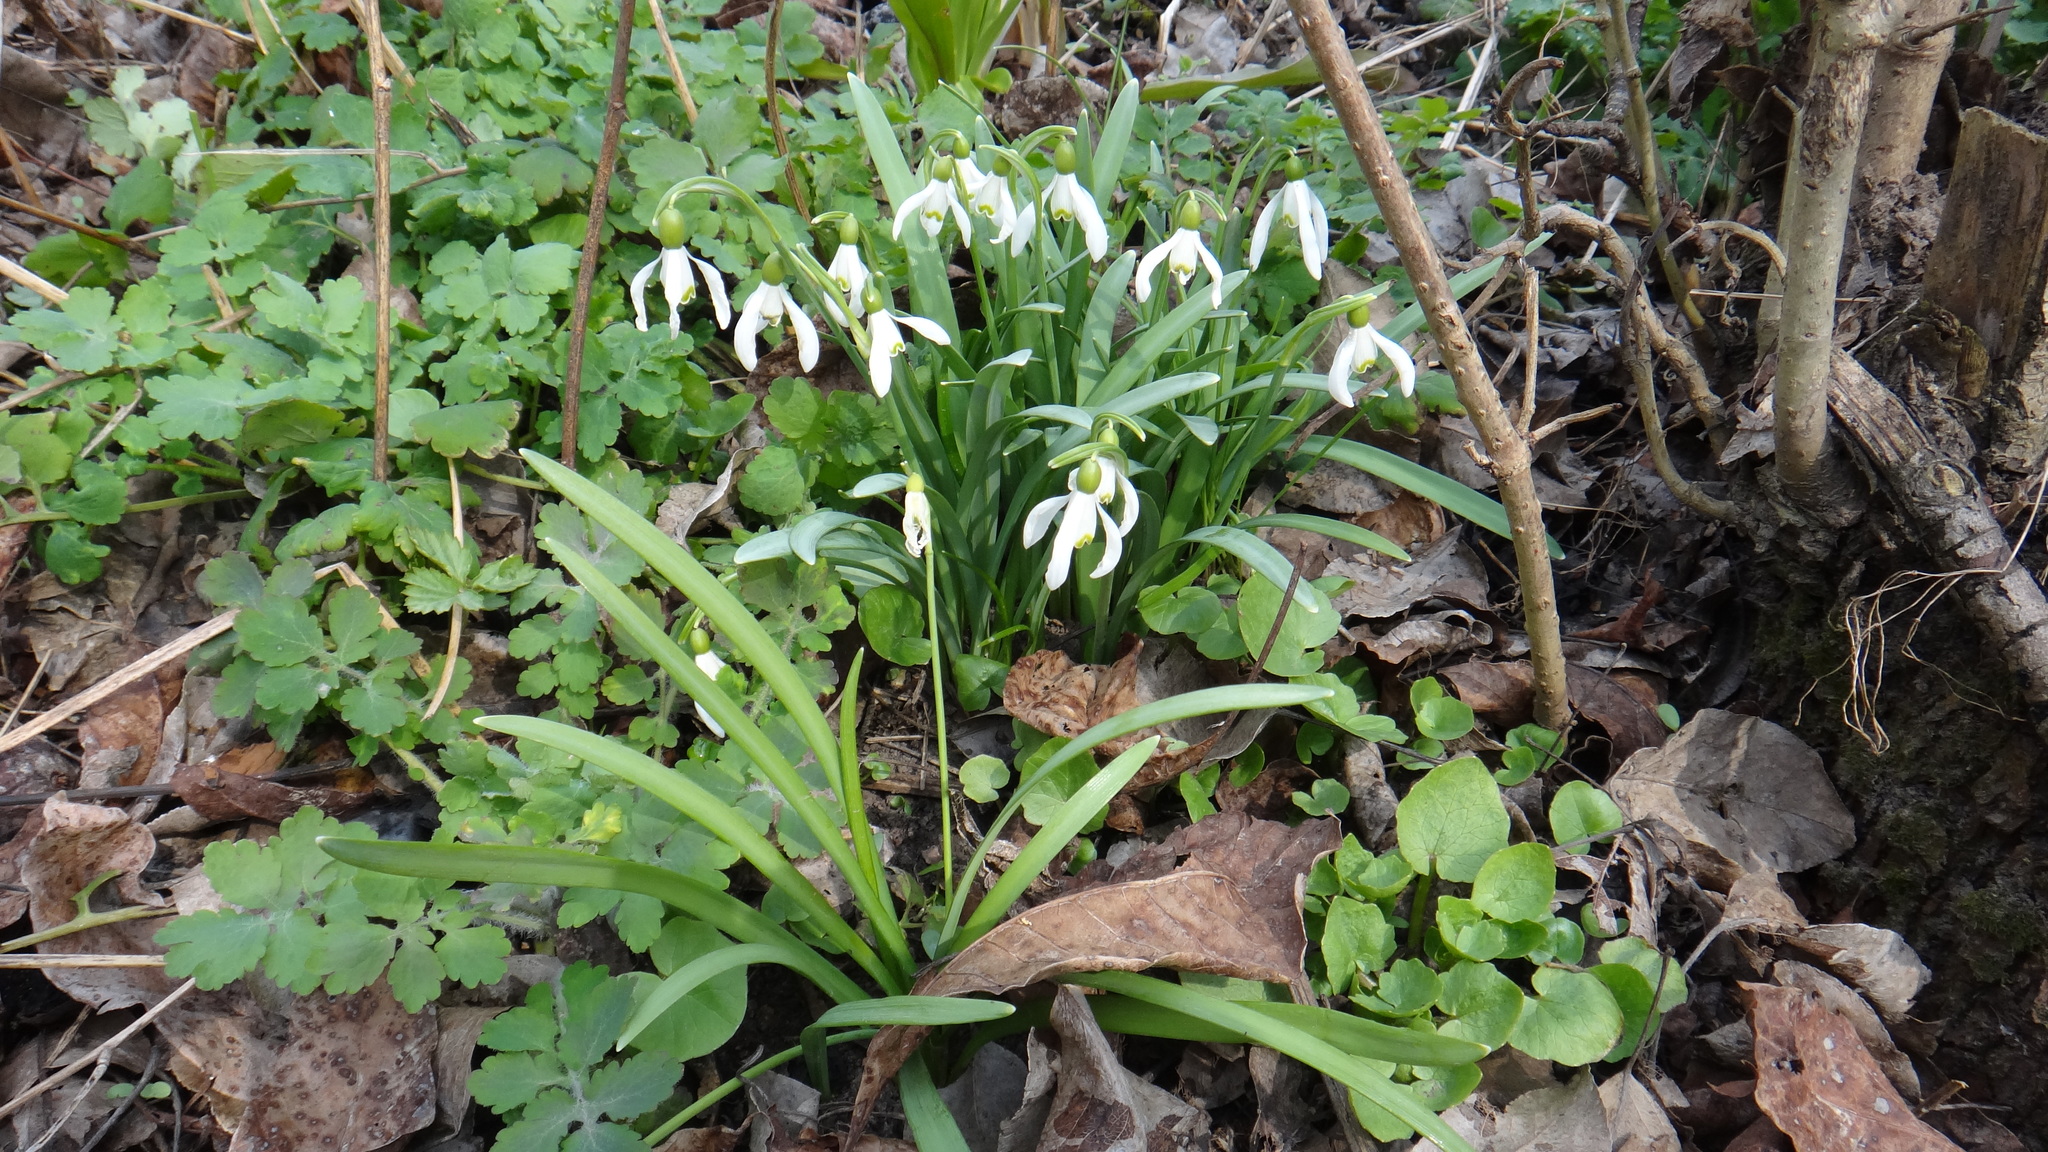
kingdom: Plantae
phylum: Tracheophyta
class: Liliopsida
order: Asparagales
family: Amaryllidaceae
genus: Galanthus
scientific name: Galanthus nivalis
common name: Snowdrop
